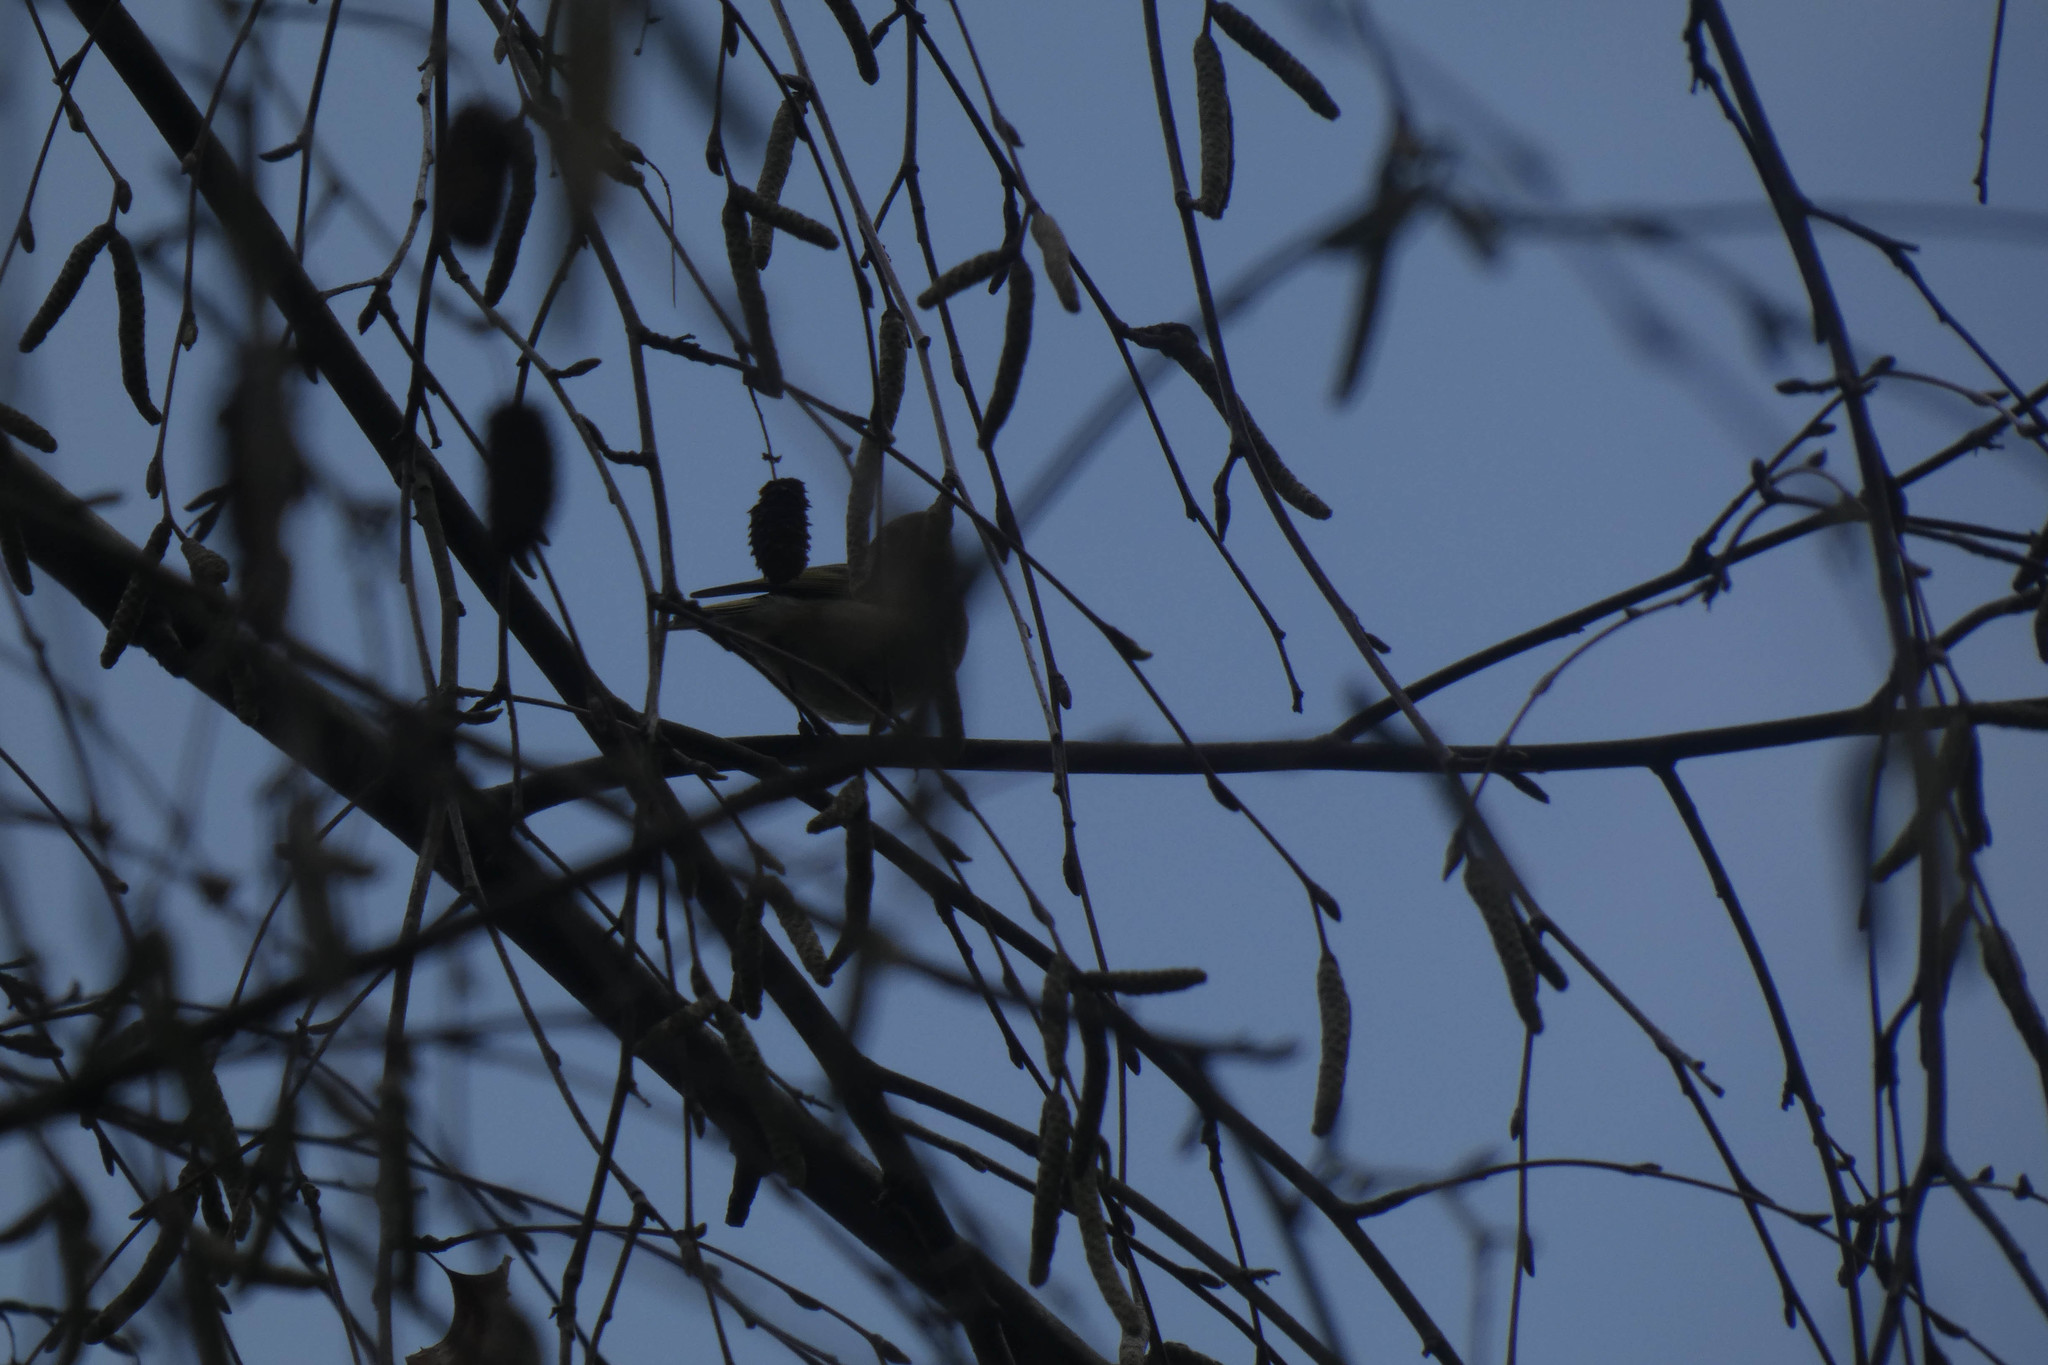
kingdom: Animalia
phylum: Chordata
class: Aves
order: Passeriformes
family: Regulidae
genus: Regulus
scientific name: Regulus calendula
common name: Ruby-crowned kinglet
